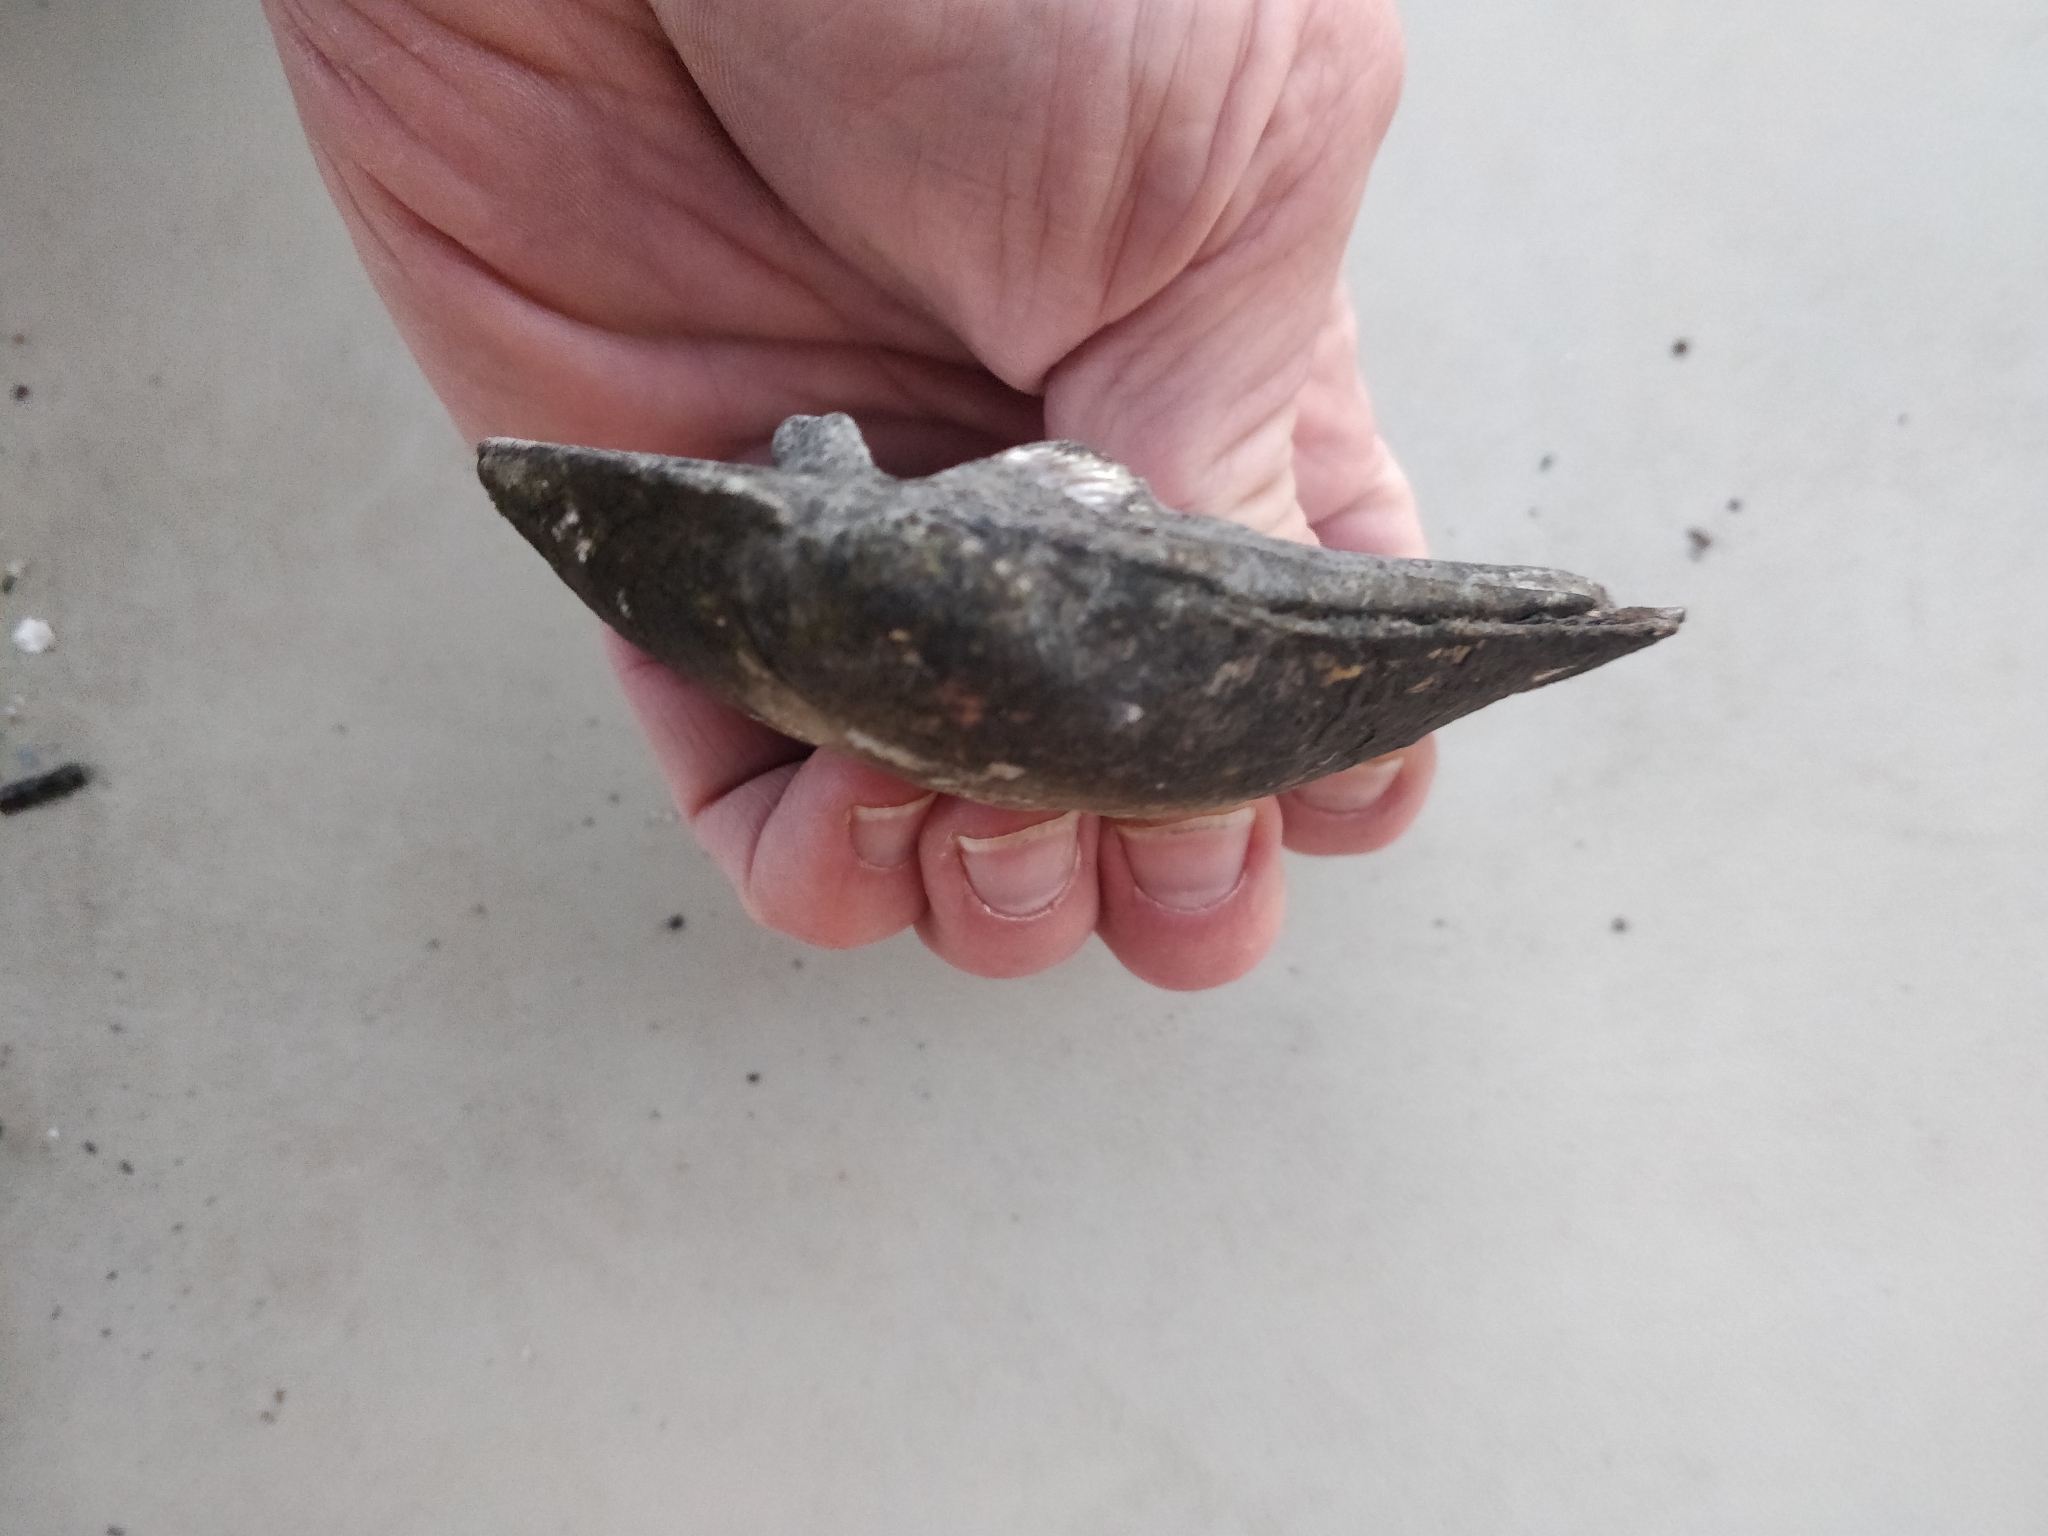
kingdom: Animalia
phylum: Mollusca
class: Bivalvia
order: Unionida
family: Unionidae
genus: Amblema
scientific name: Amblema plicata
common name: Threeridge
